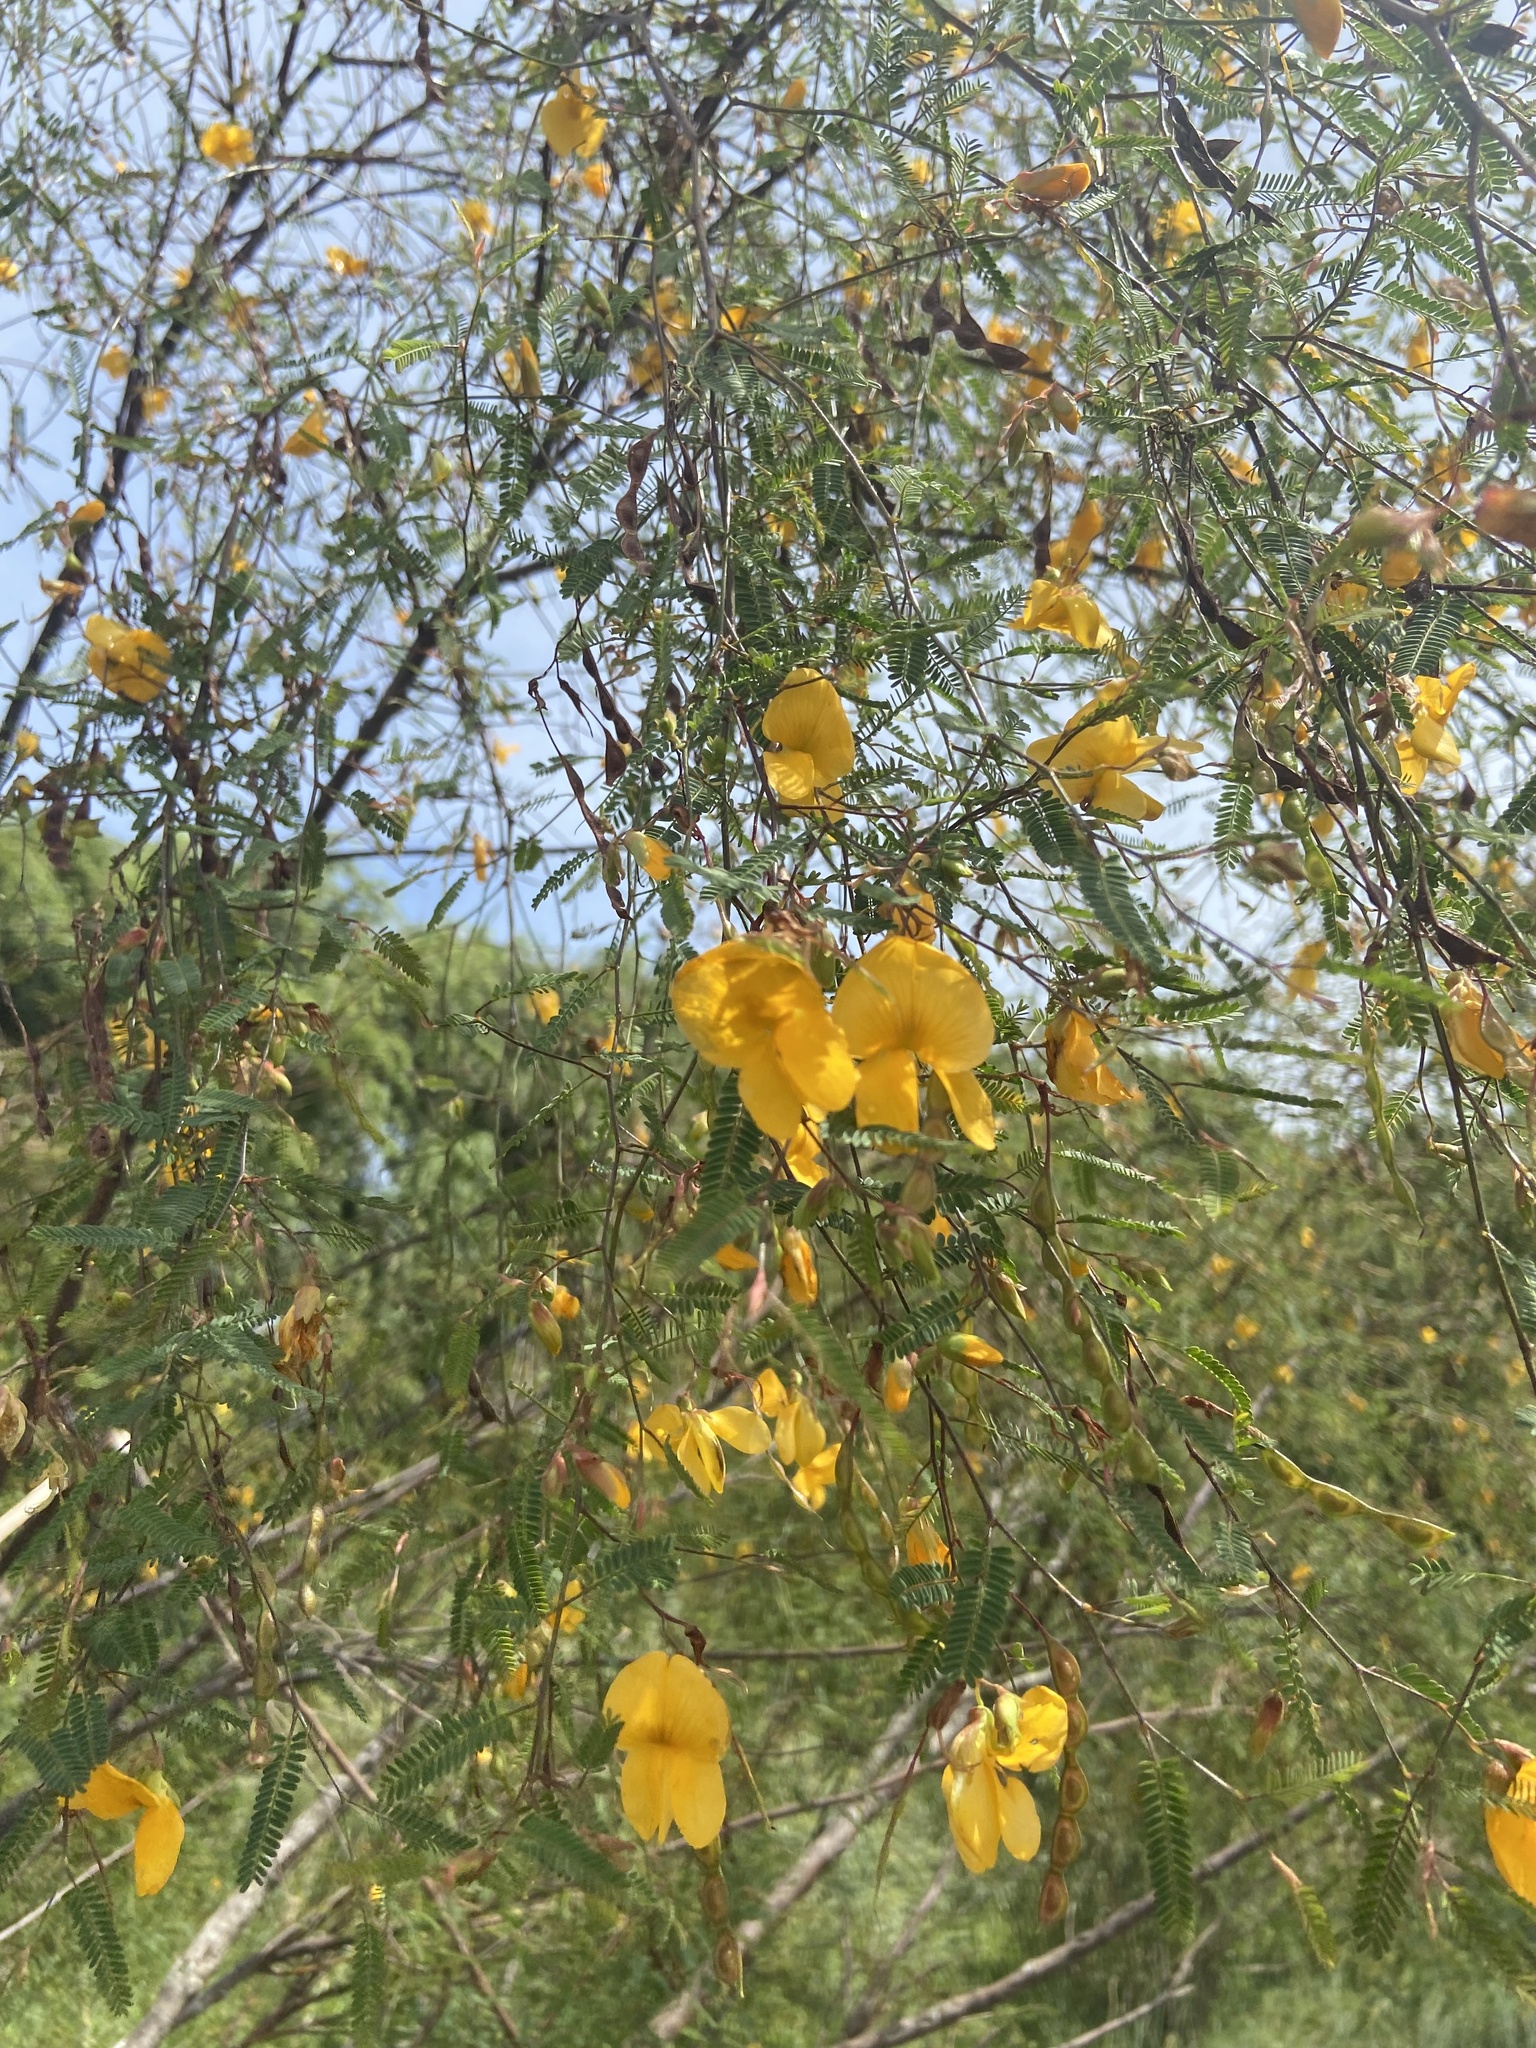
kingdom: Plantae
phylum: Tracheophyta
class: Magnoliopsida
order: Fabales
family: Fabaceae
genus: Aeschynomene
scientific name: Aeschynomene montevidensis
